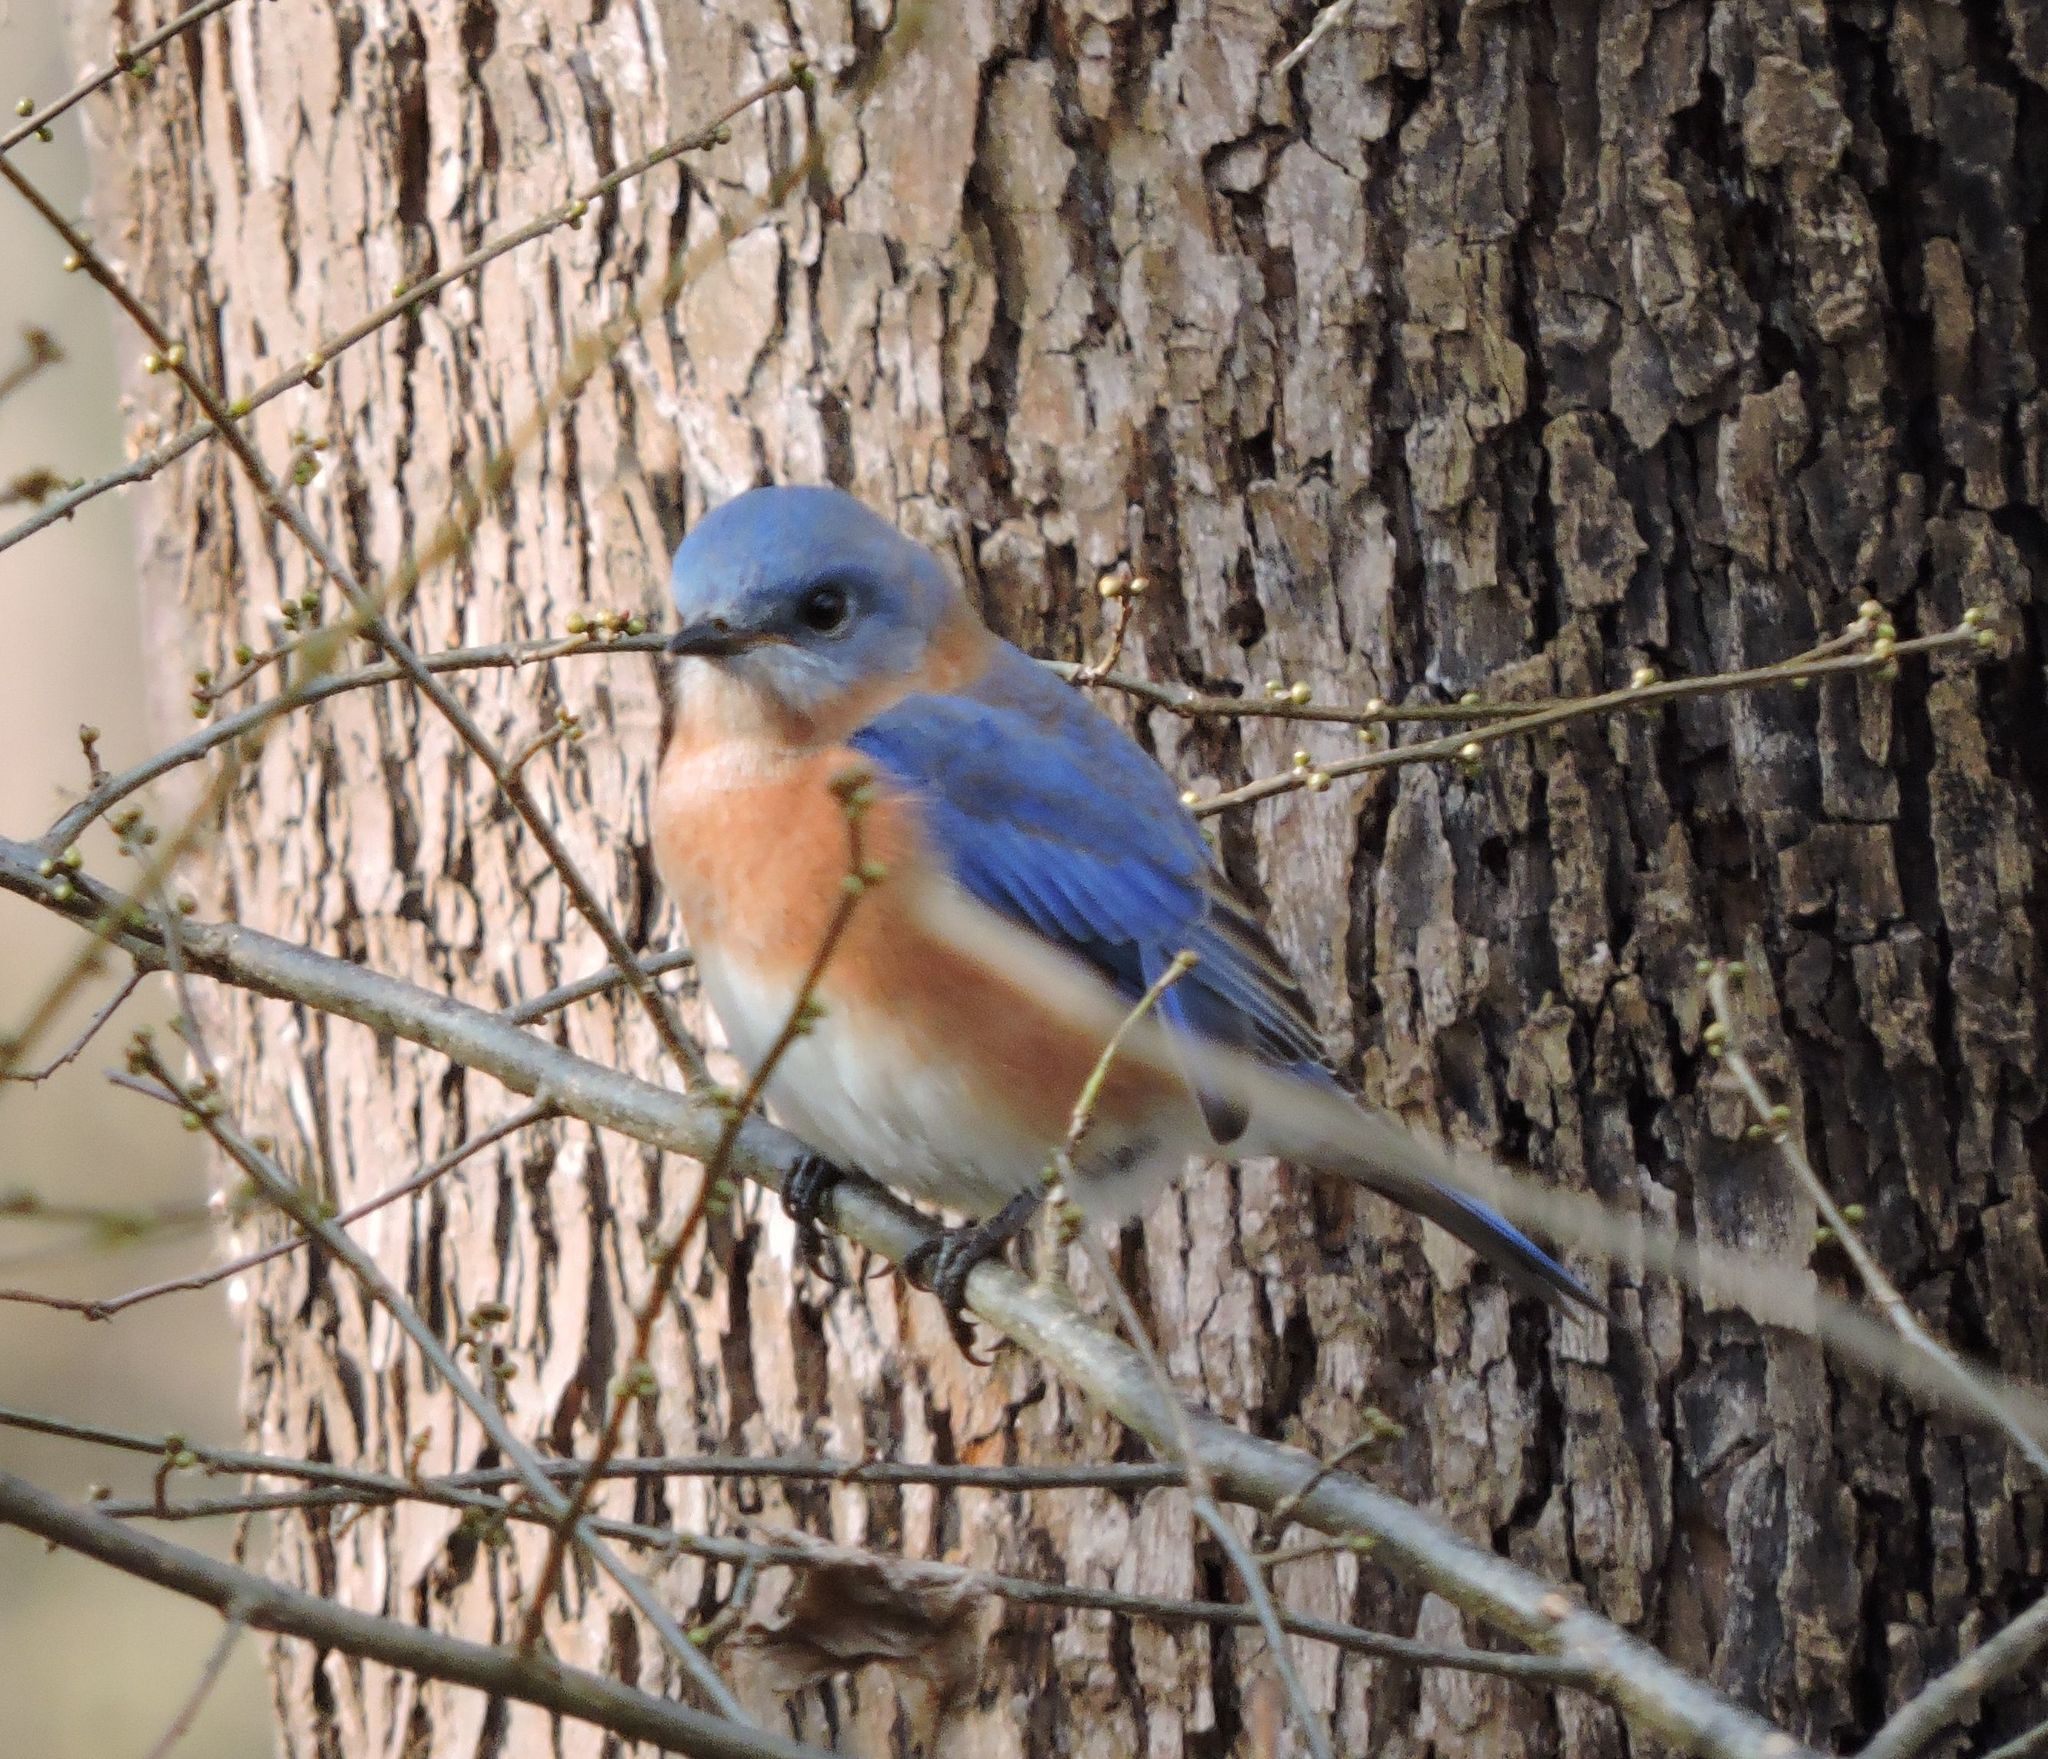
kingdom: Animalia
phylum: Chordata
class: Aves
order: Passeriformes
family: Turdidae
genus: Sialia
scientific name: Sialia sialis
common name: Eastern bluebird
